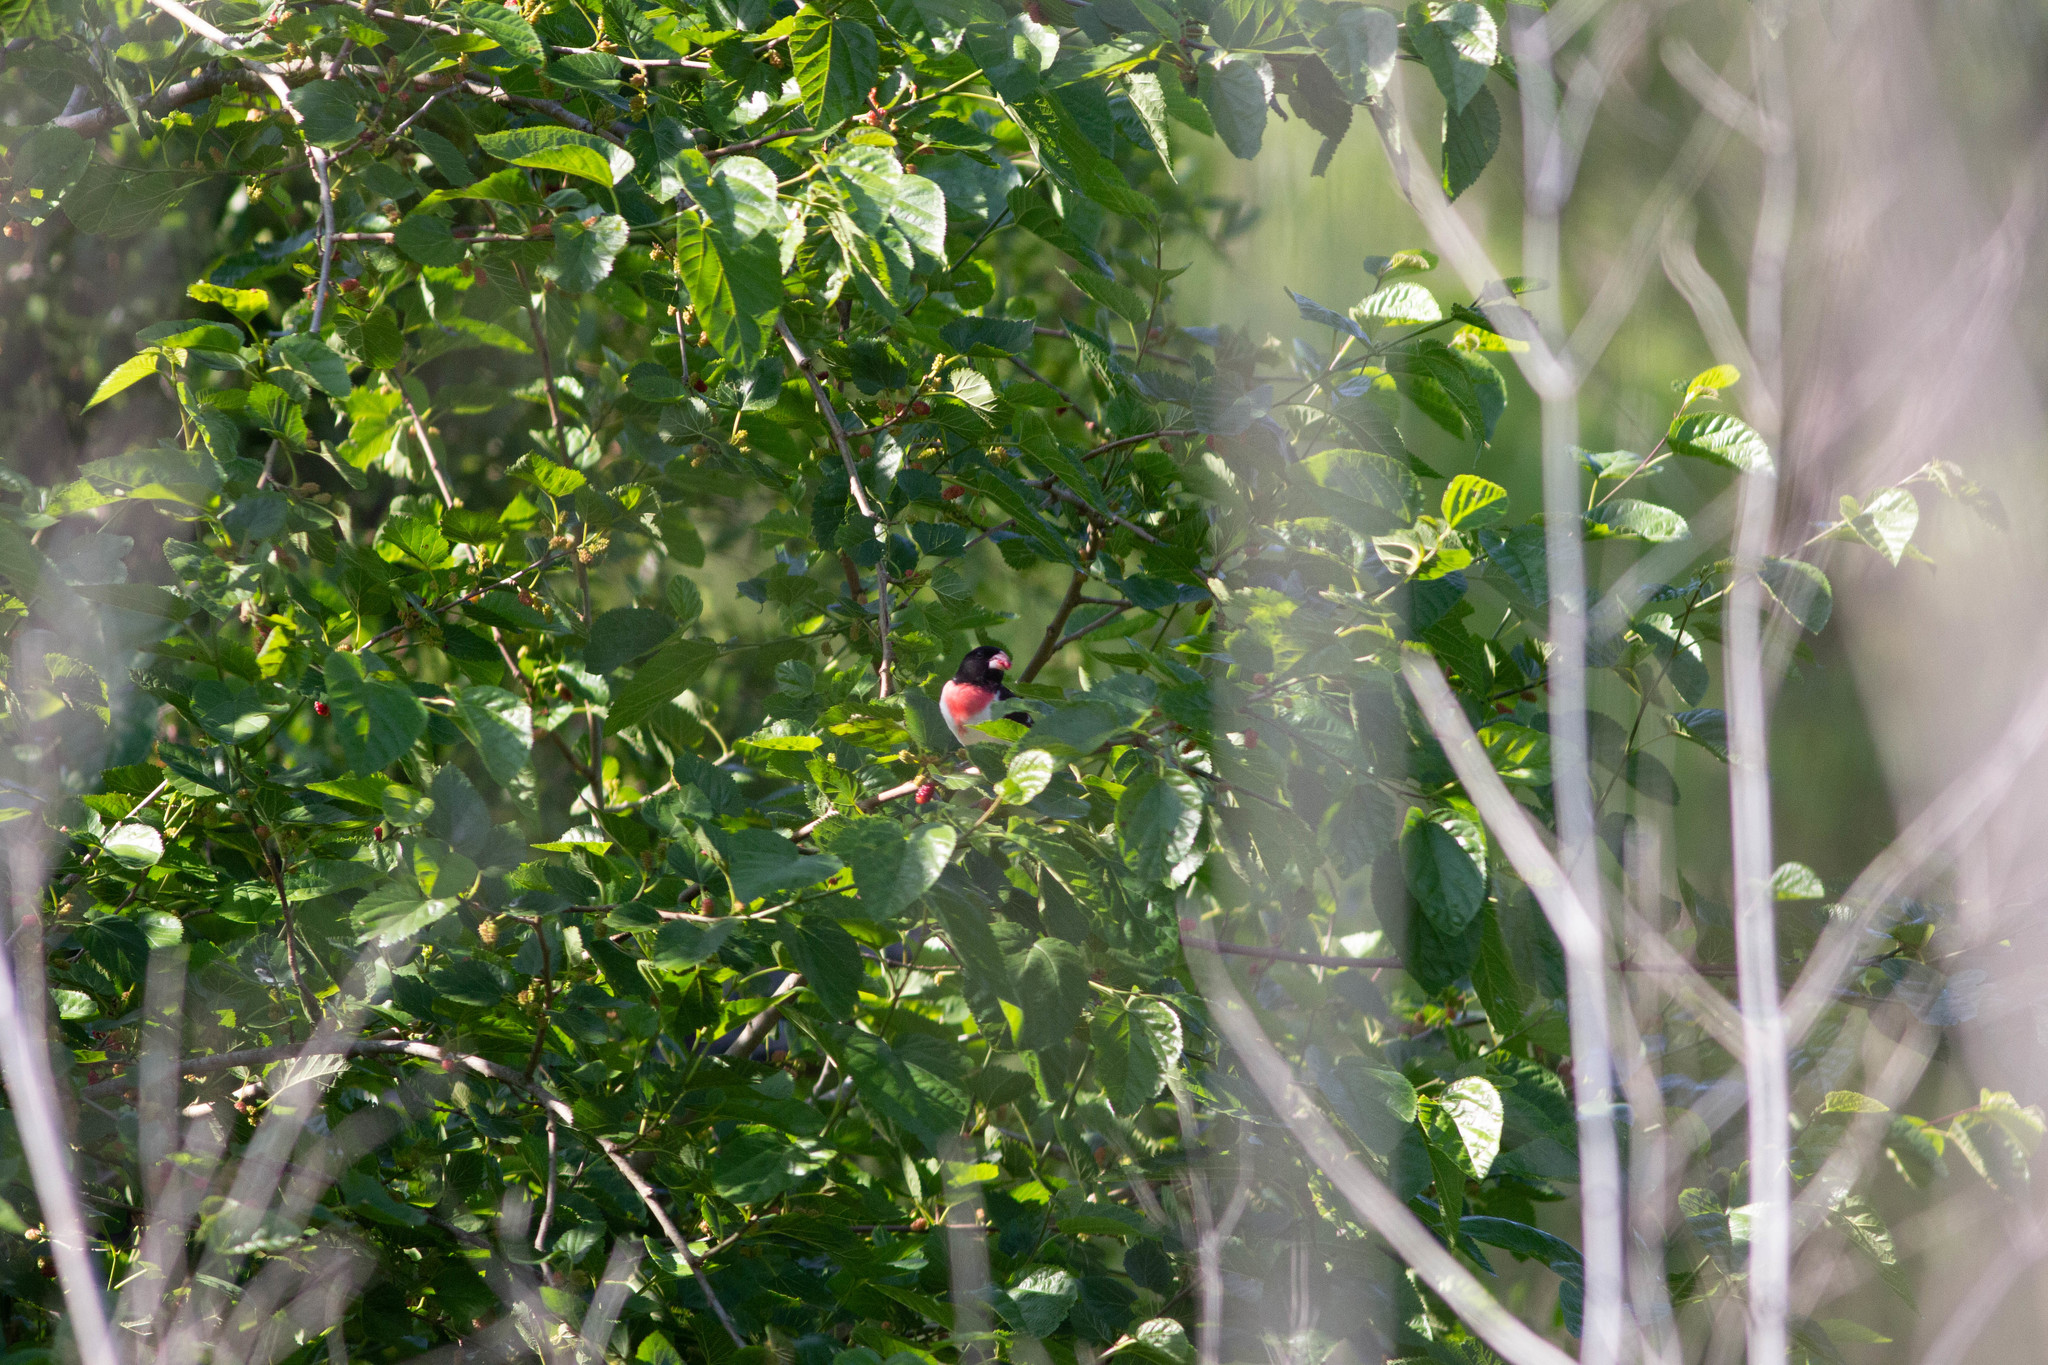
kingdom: Animalia
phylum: Chordata
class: Aves
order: Passeriformes
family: Cardinalidae
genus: Pheucticus
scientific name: Pheucticus ludovicianus
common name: Rose-breasted grosbeak
